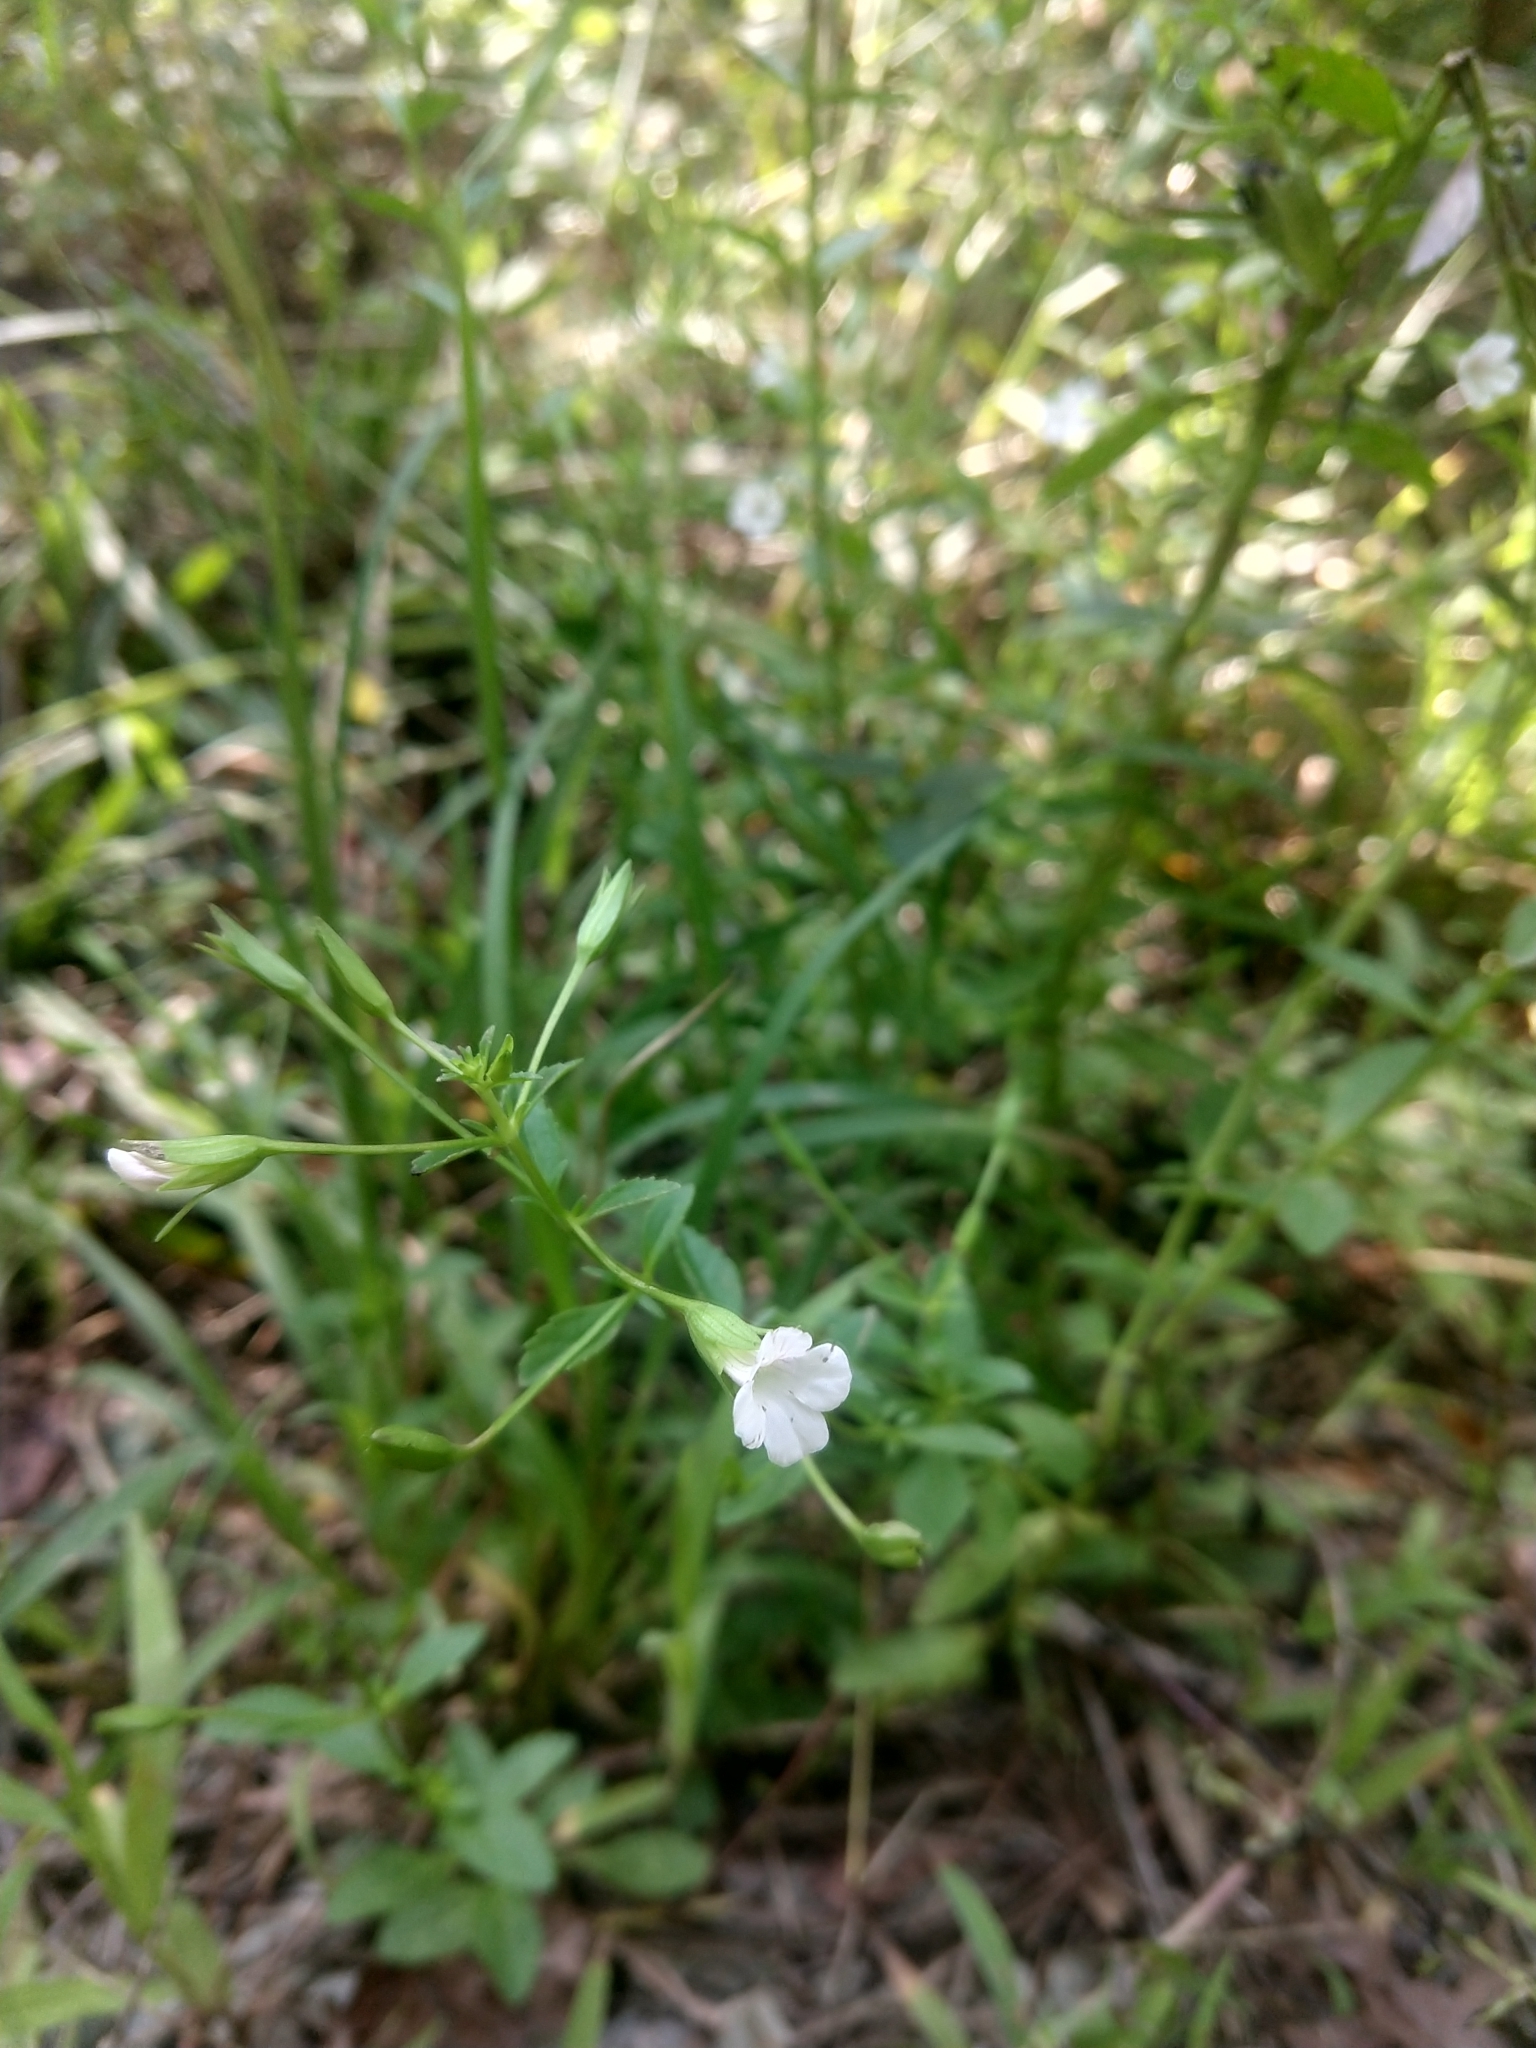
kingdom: Plantae
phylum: Tracheophyta
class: Magnoliopsida
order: Lamiales
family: Plantaginaceae
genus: Mecardonia
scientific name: Mecardonia acuminata
